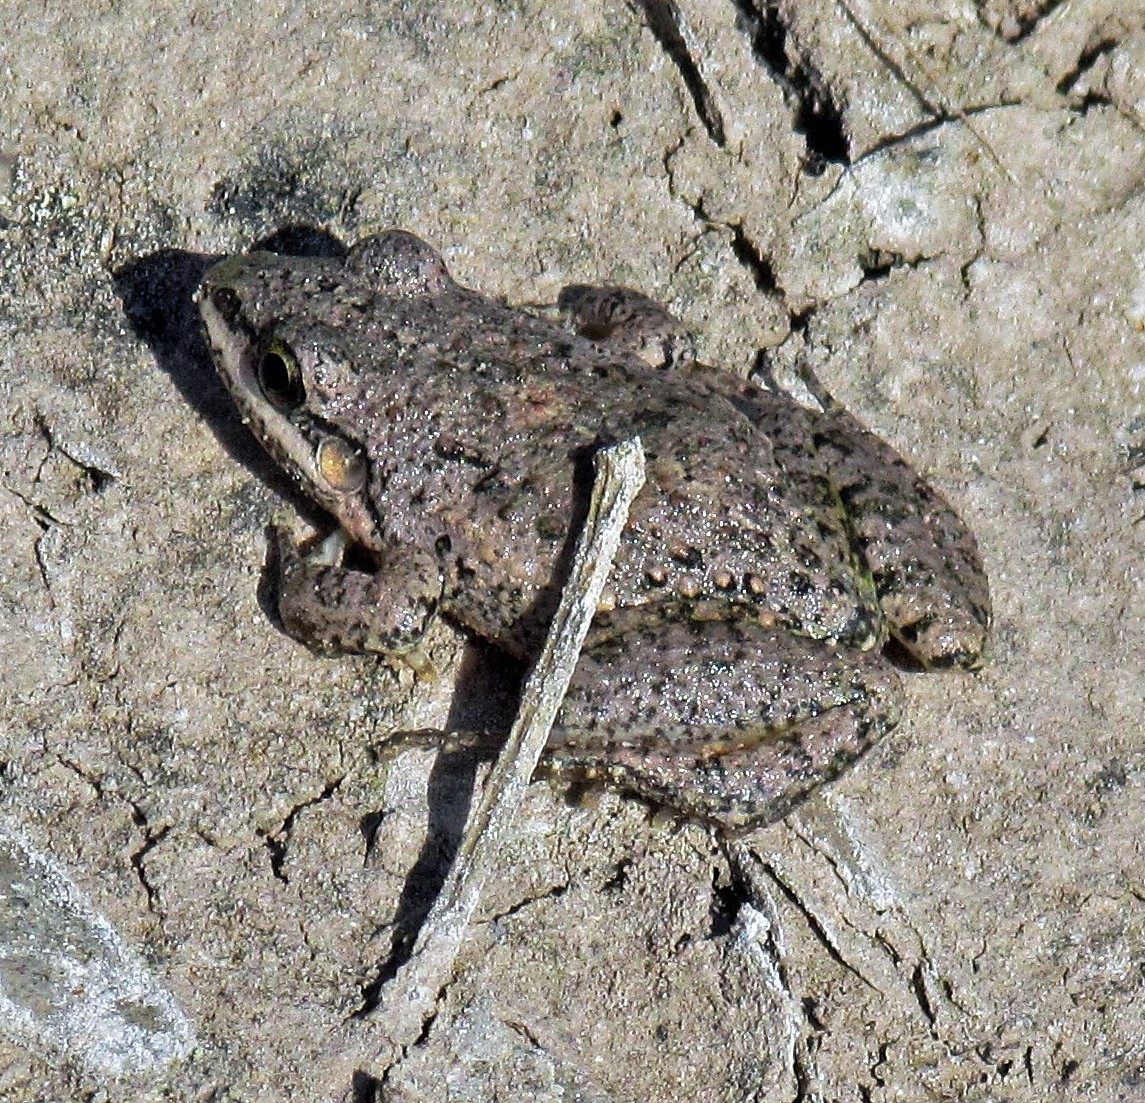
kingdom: Animalia
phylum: Chordata
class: Amphibia
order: Anura
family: Leptodactylidae
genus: Leptodactylus
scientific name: Leptodactylus latinasus
